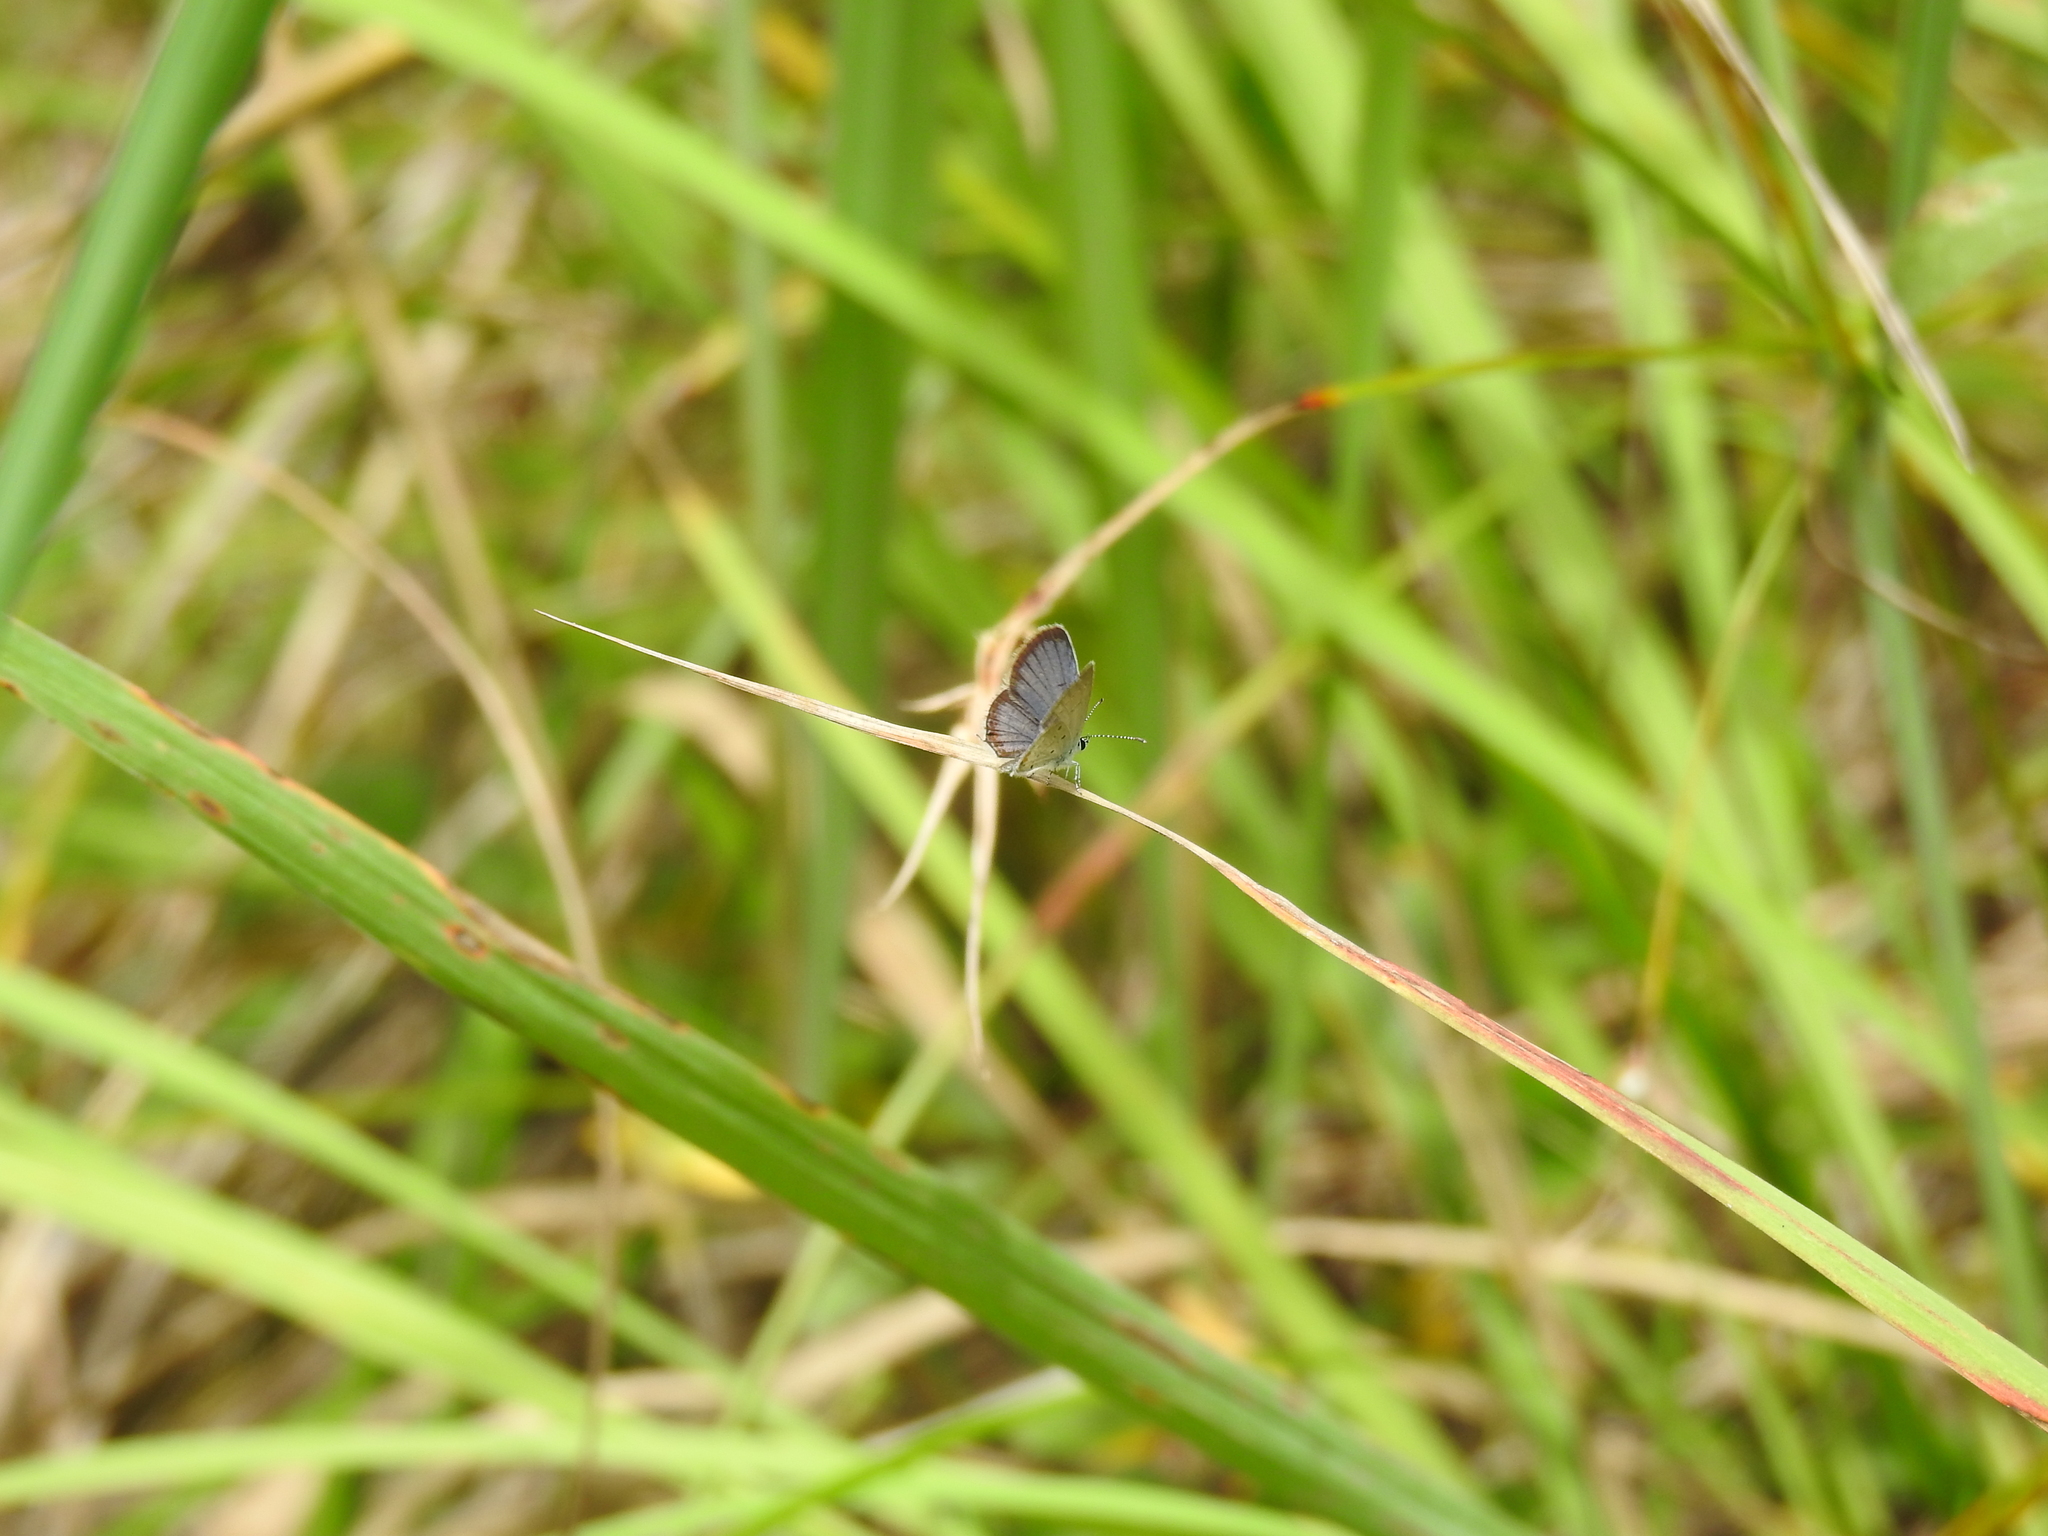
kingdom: Animalia
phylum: Arthropoda
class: Insecta
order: Lepidoptera
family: Lycaenidae
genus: Elkalyce
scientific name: Elkalyce comyntas
